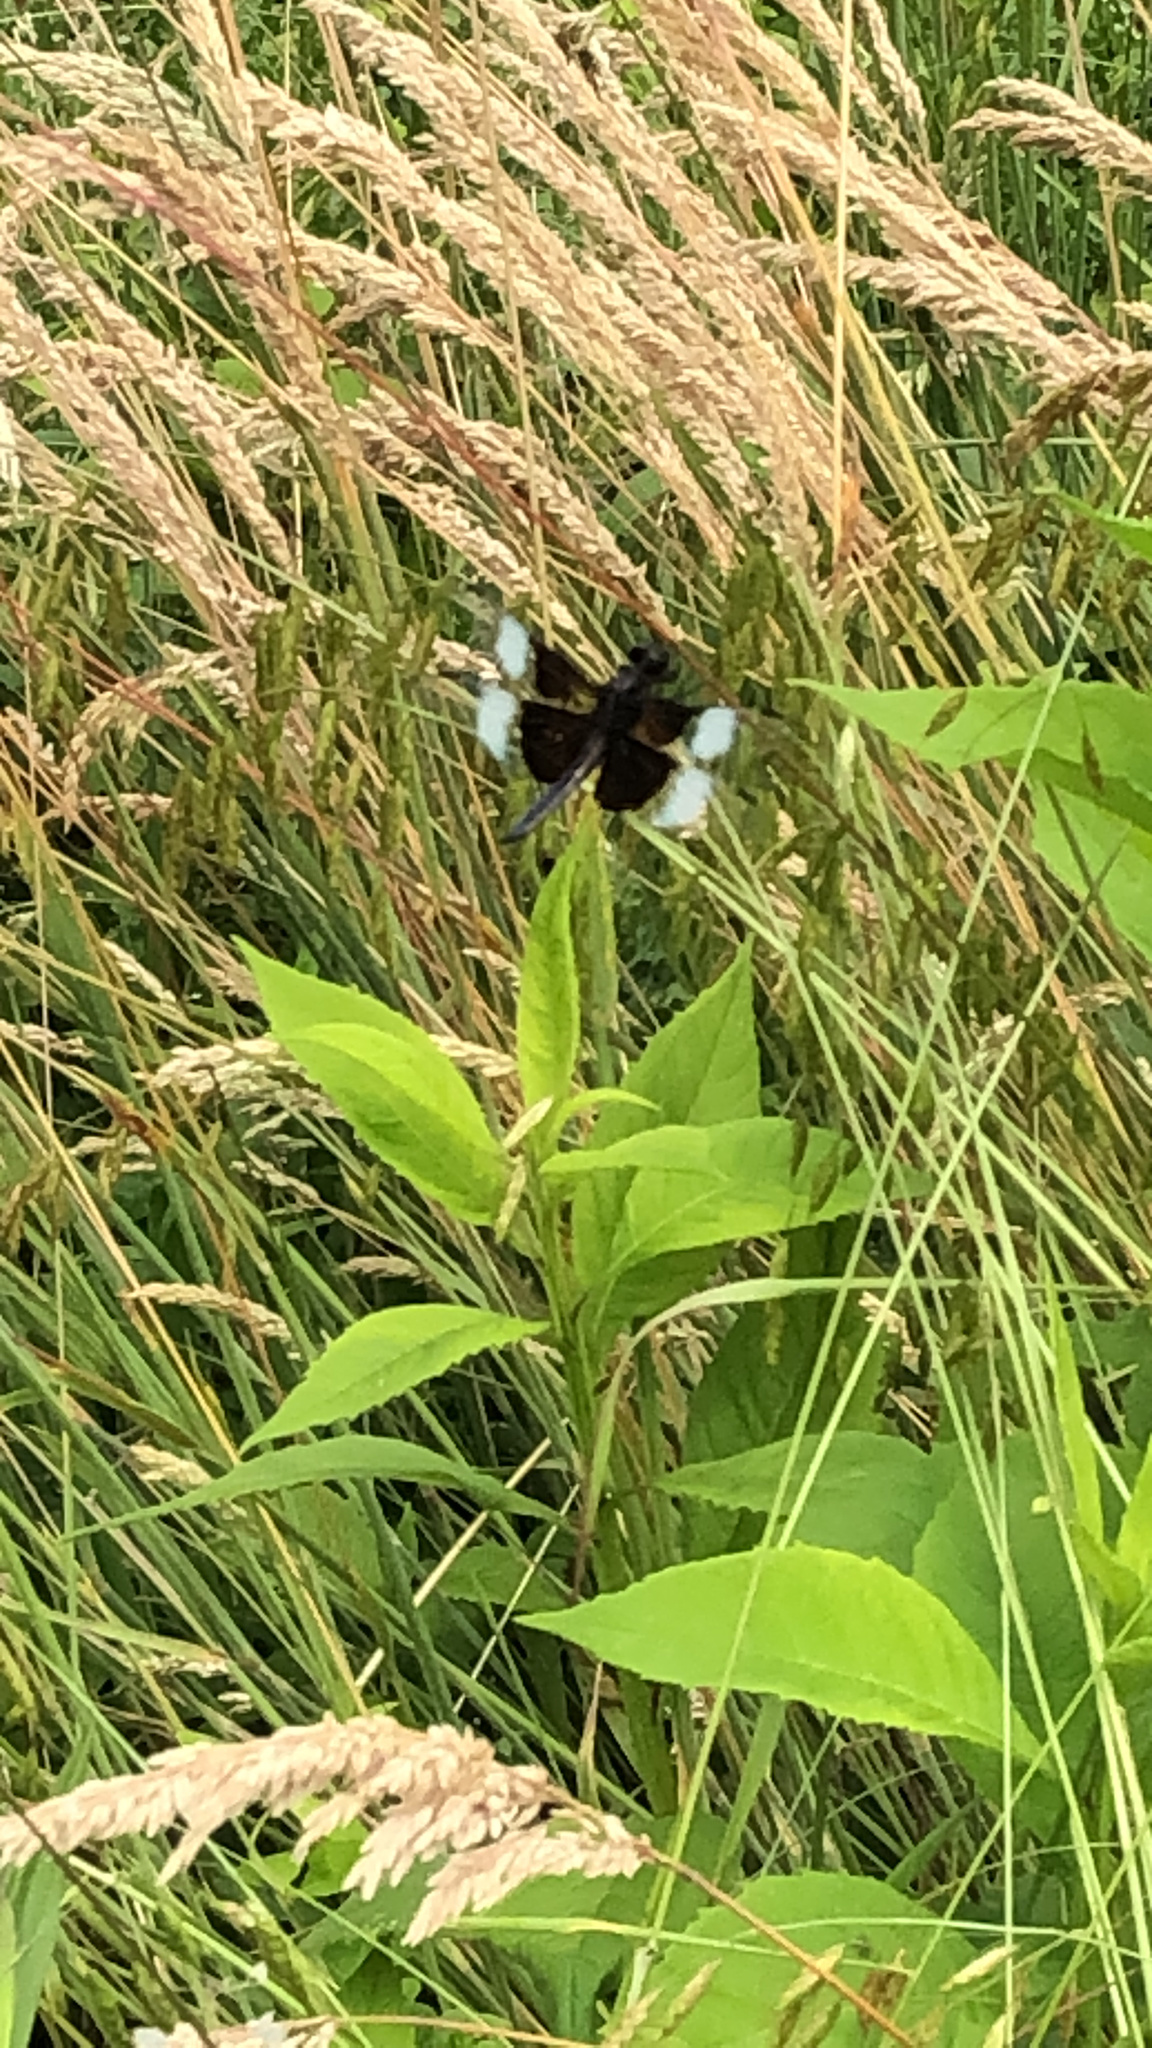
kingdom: Animalia
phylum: Arthropoda
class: Insecta
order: Odonata
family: Libellulidae
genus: Libellula
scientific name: Libellula luctuosa
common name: Widow skimmer
